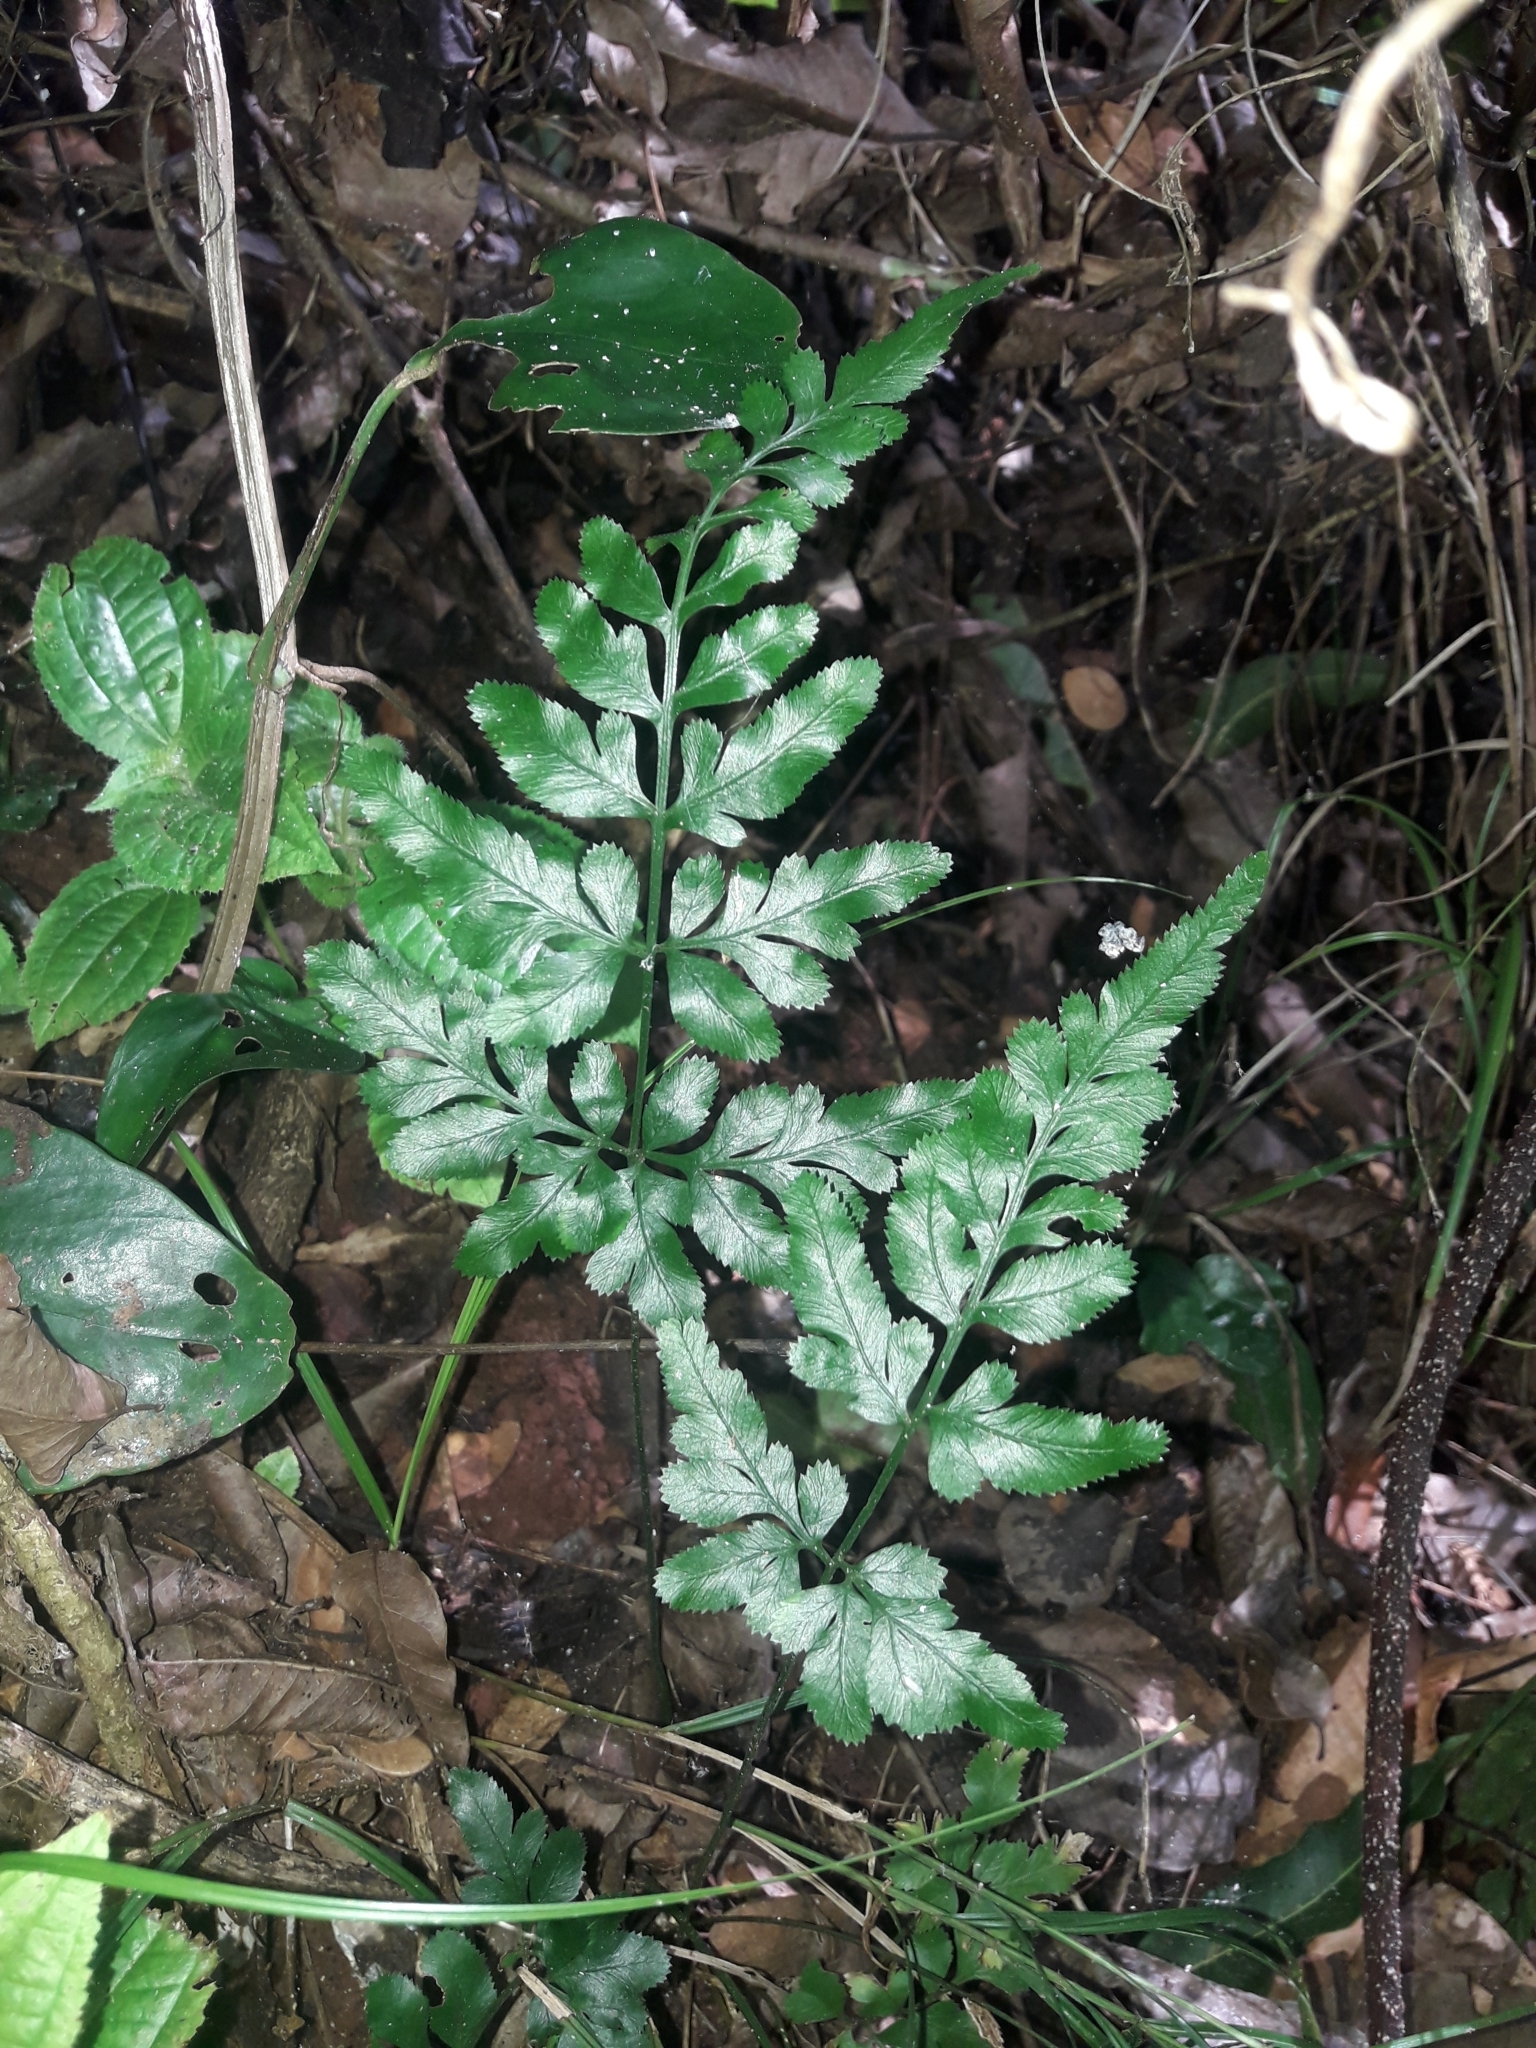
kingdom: Plantae
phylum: Tracheophyta
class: Polypodiopsida
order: Polypodiales
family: Pteridaceae
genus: Pteris
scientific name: Pteris ensiformis
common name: Sword brake
